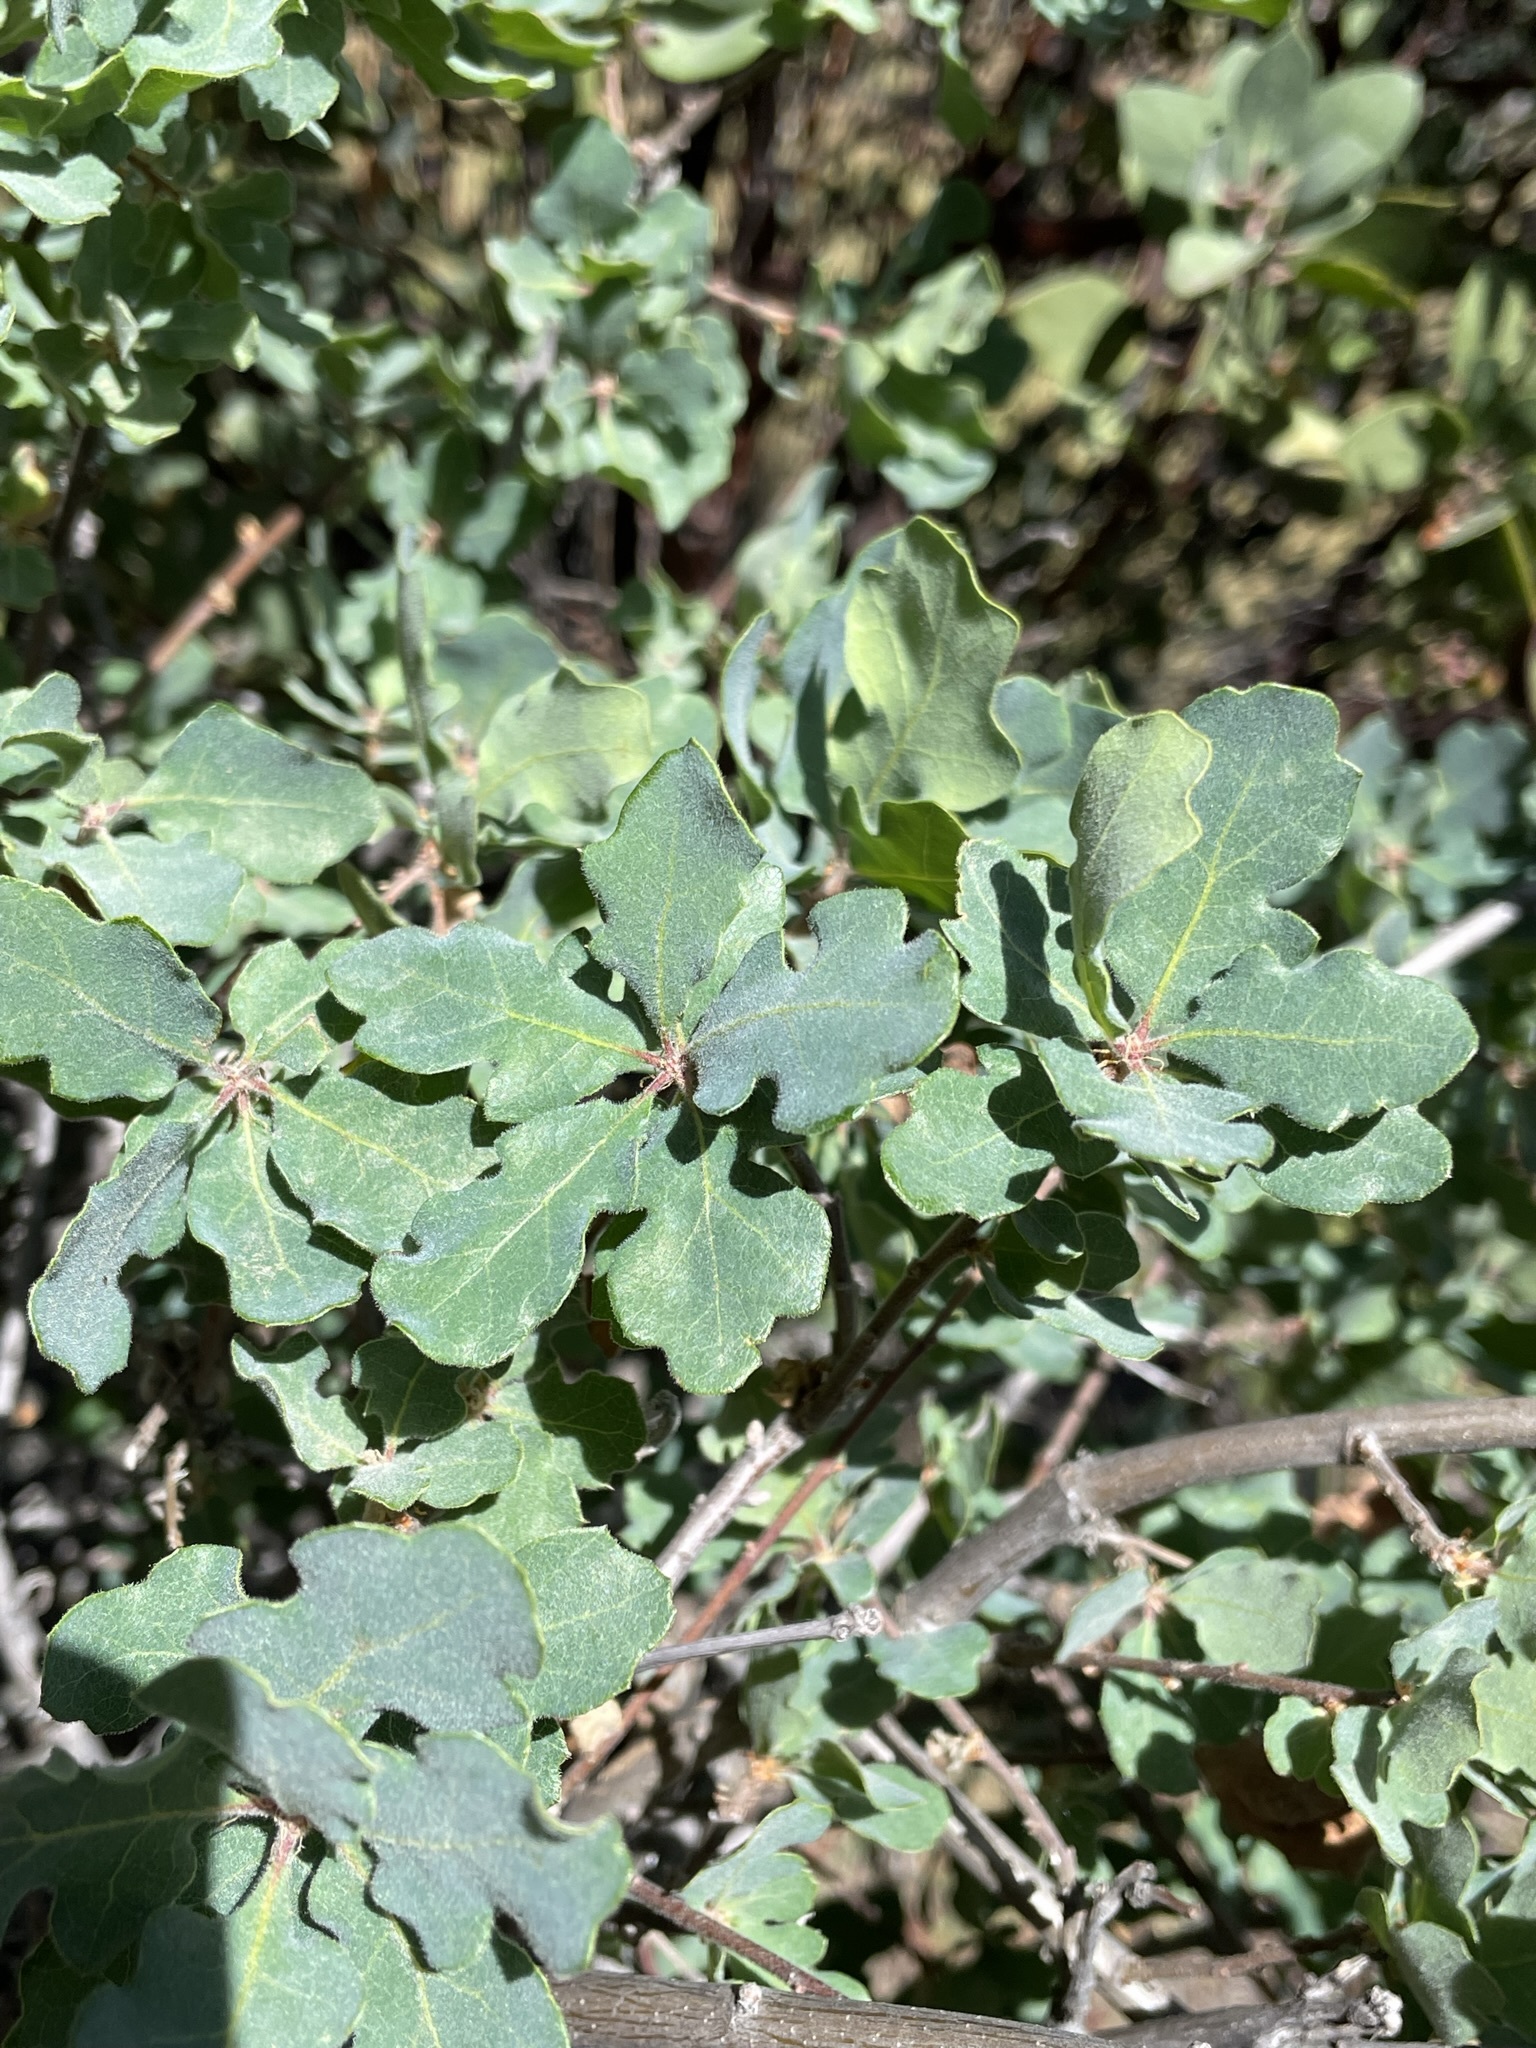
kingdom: Plantae
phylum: Tracheophyta
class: Magnoliopsida
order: Fagales
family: Fagaceae
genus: Quercus
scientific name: Quercus douglasii
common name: Blue oak
